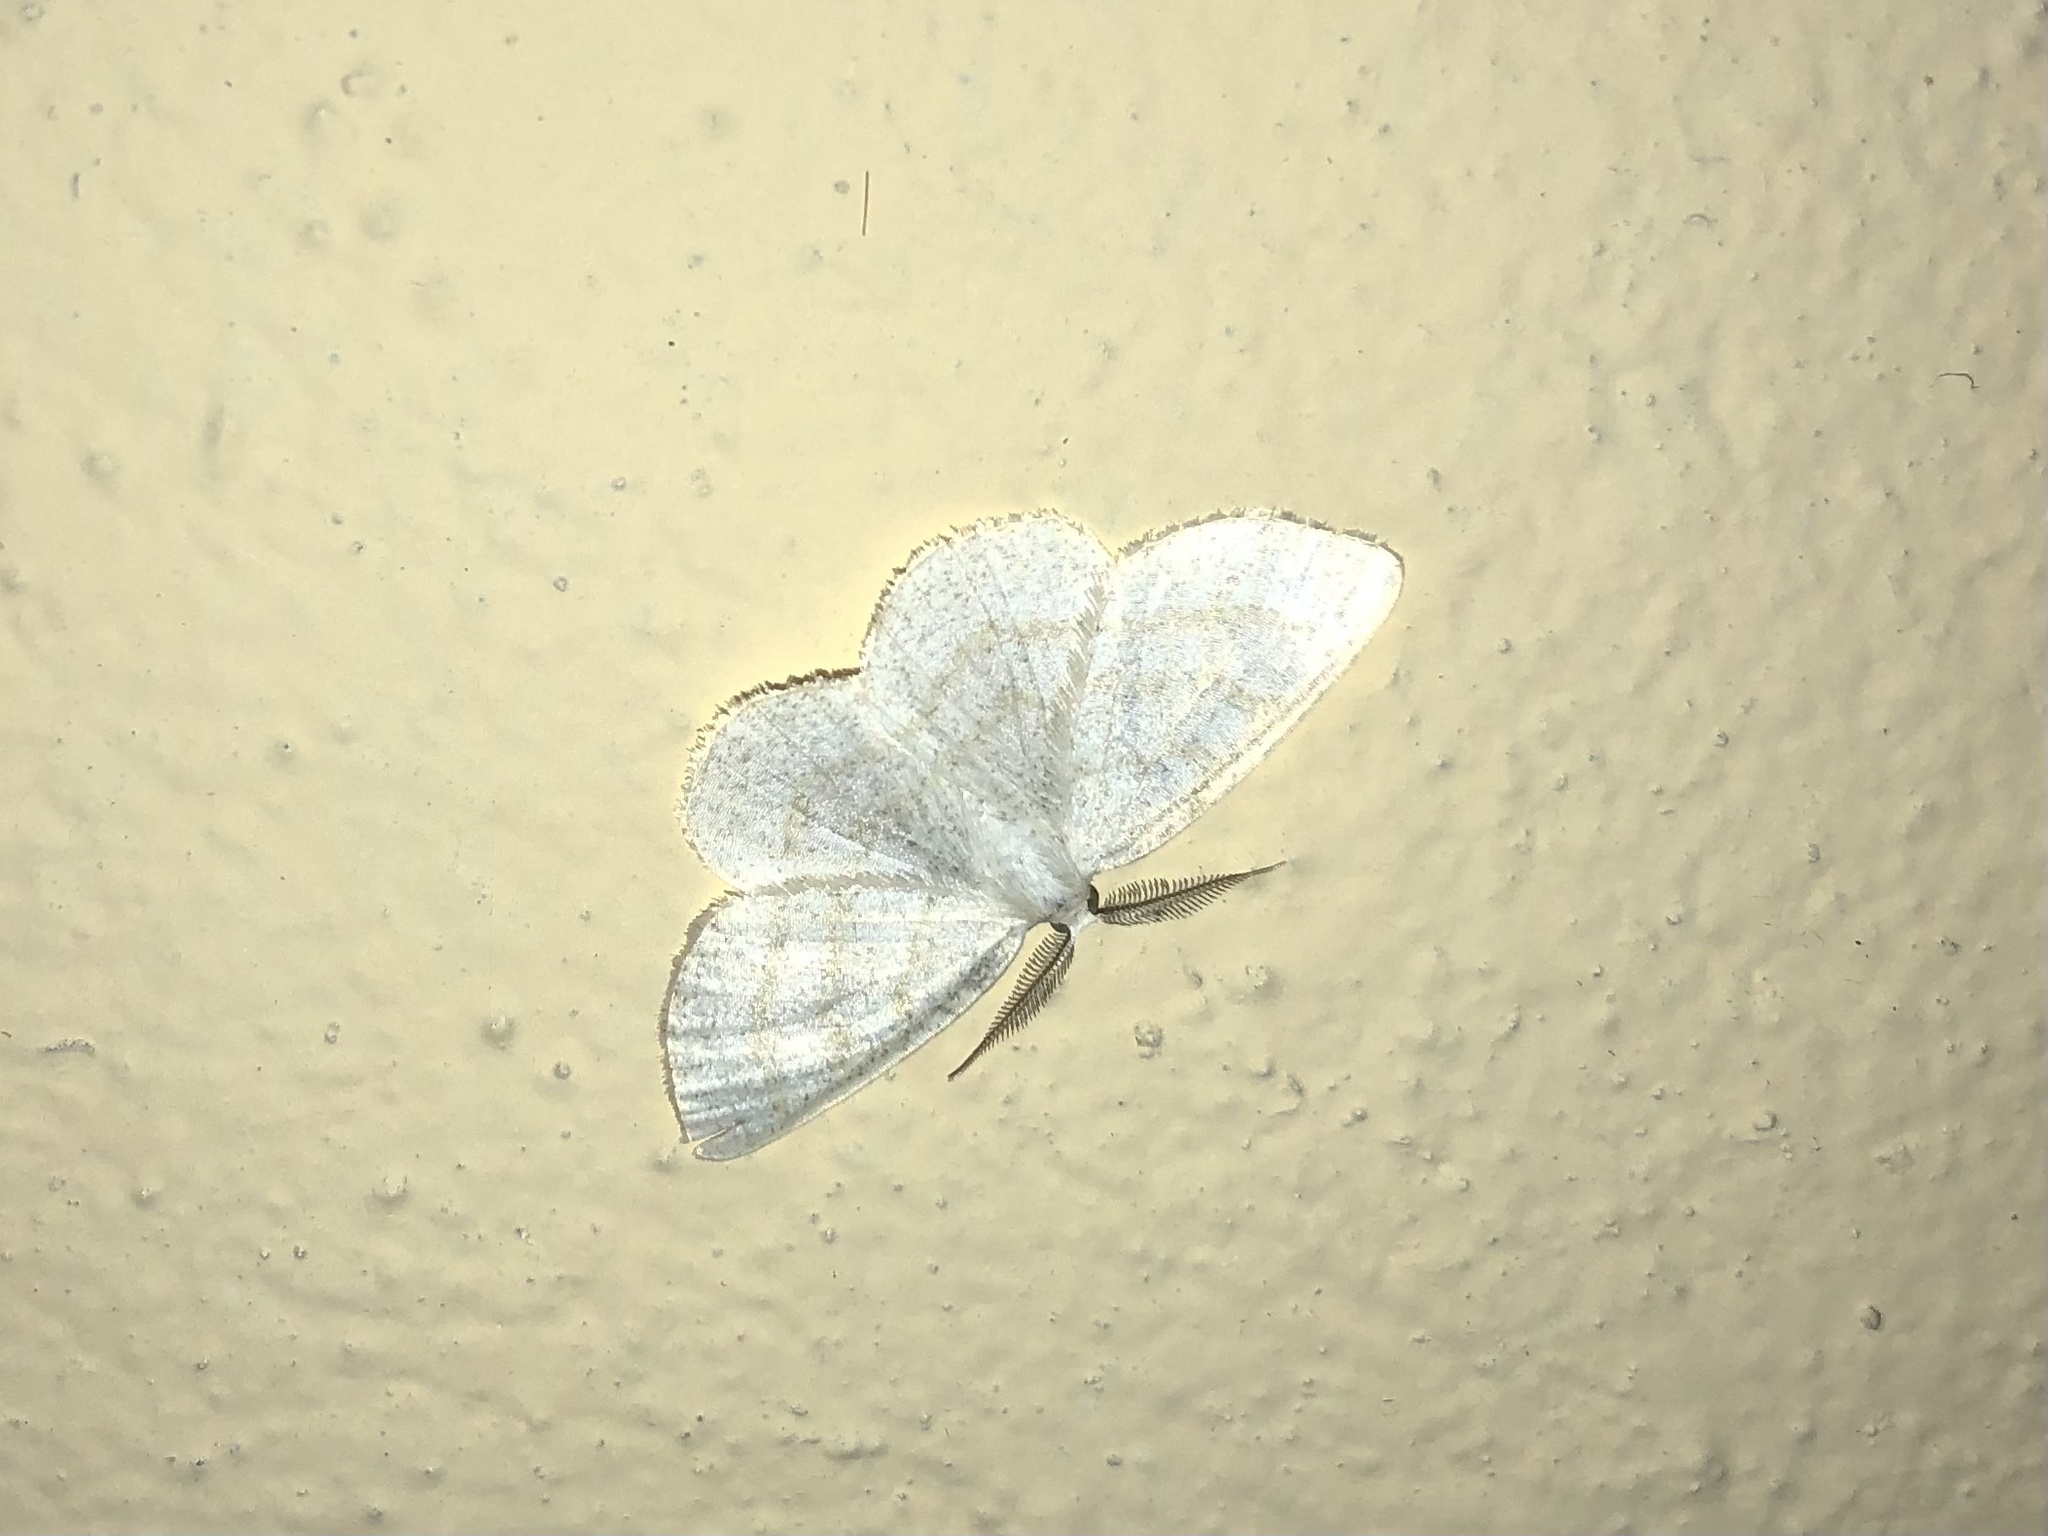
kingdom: Animalia
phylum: Arthropoda
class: Insecta
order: Lepidoptera
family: Geometridae
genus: Cabera
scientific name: Cabera exanthemata
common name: Common wave
